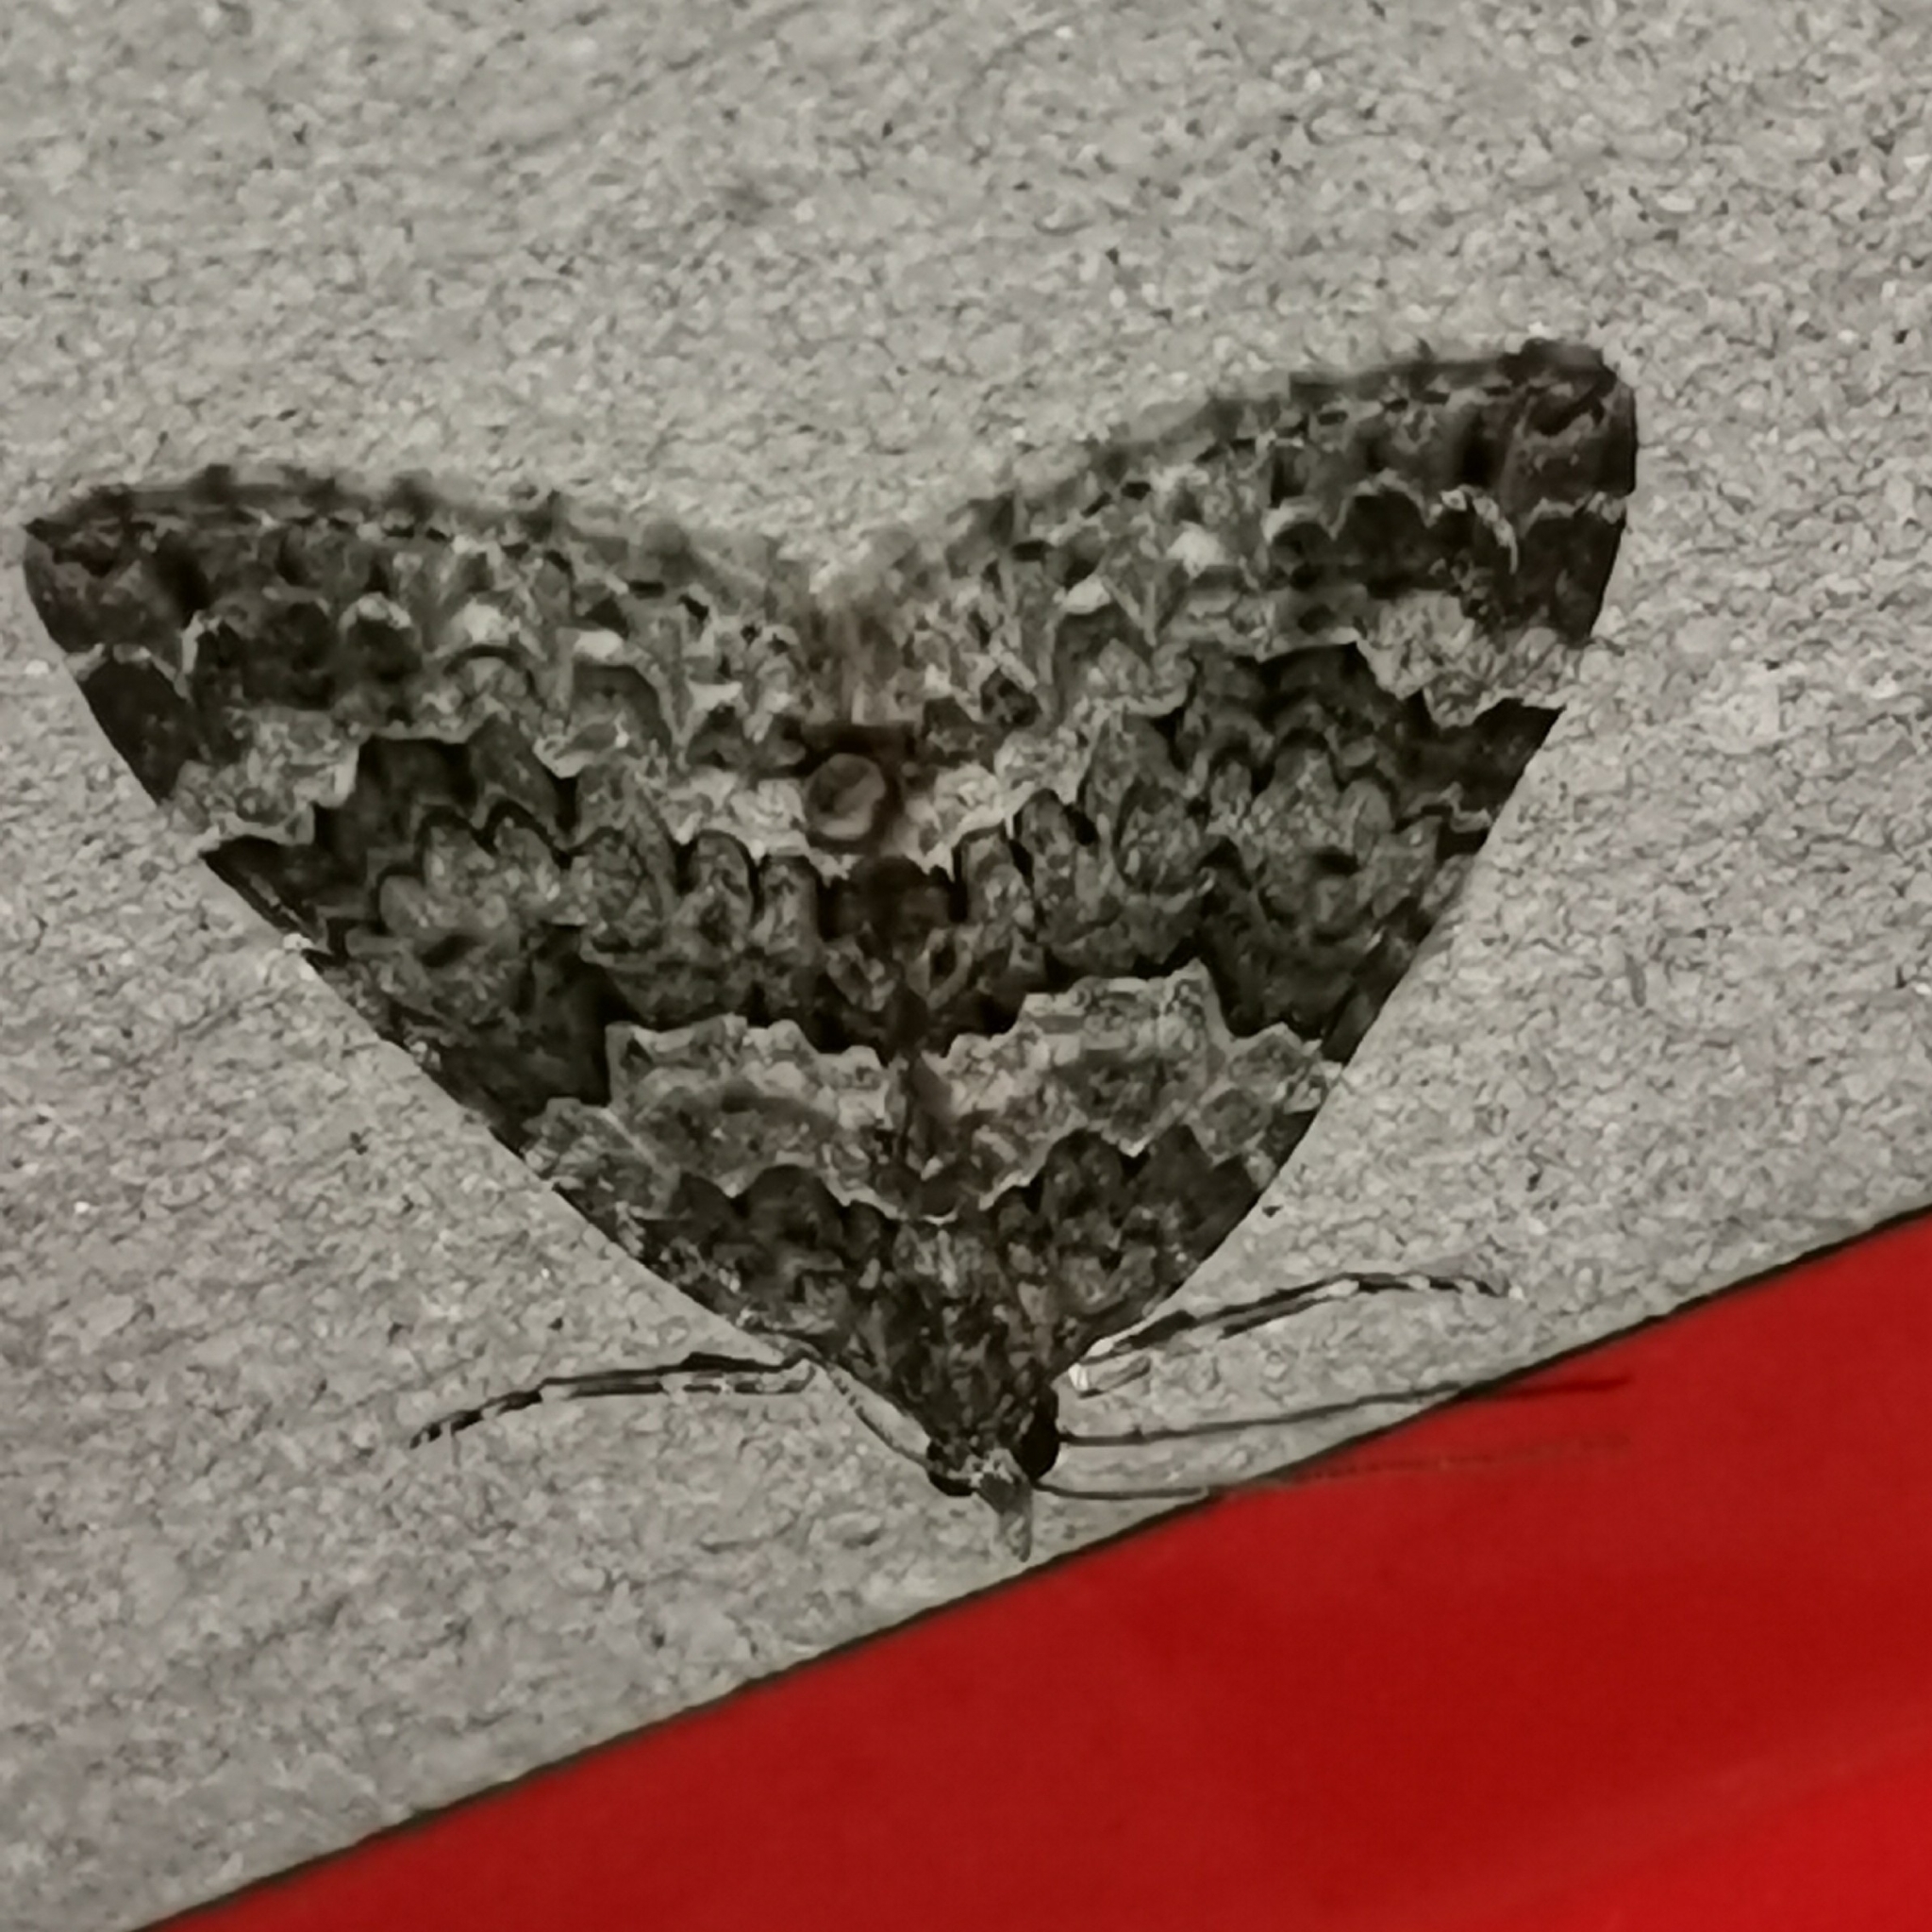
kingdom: Animalia
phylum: Arthropoda
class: Insecta
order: Lepidoptera
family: Geometridae
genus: Chloroclysta
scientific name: Chloroclysta miata
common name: Autumn green carpet
